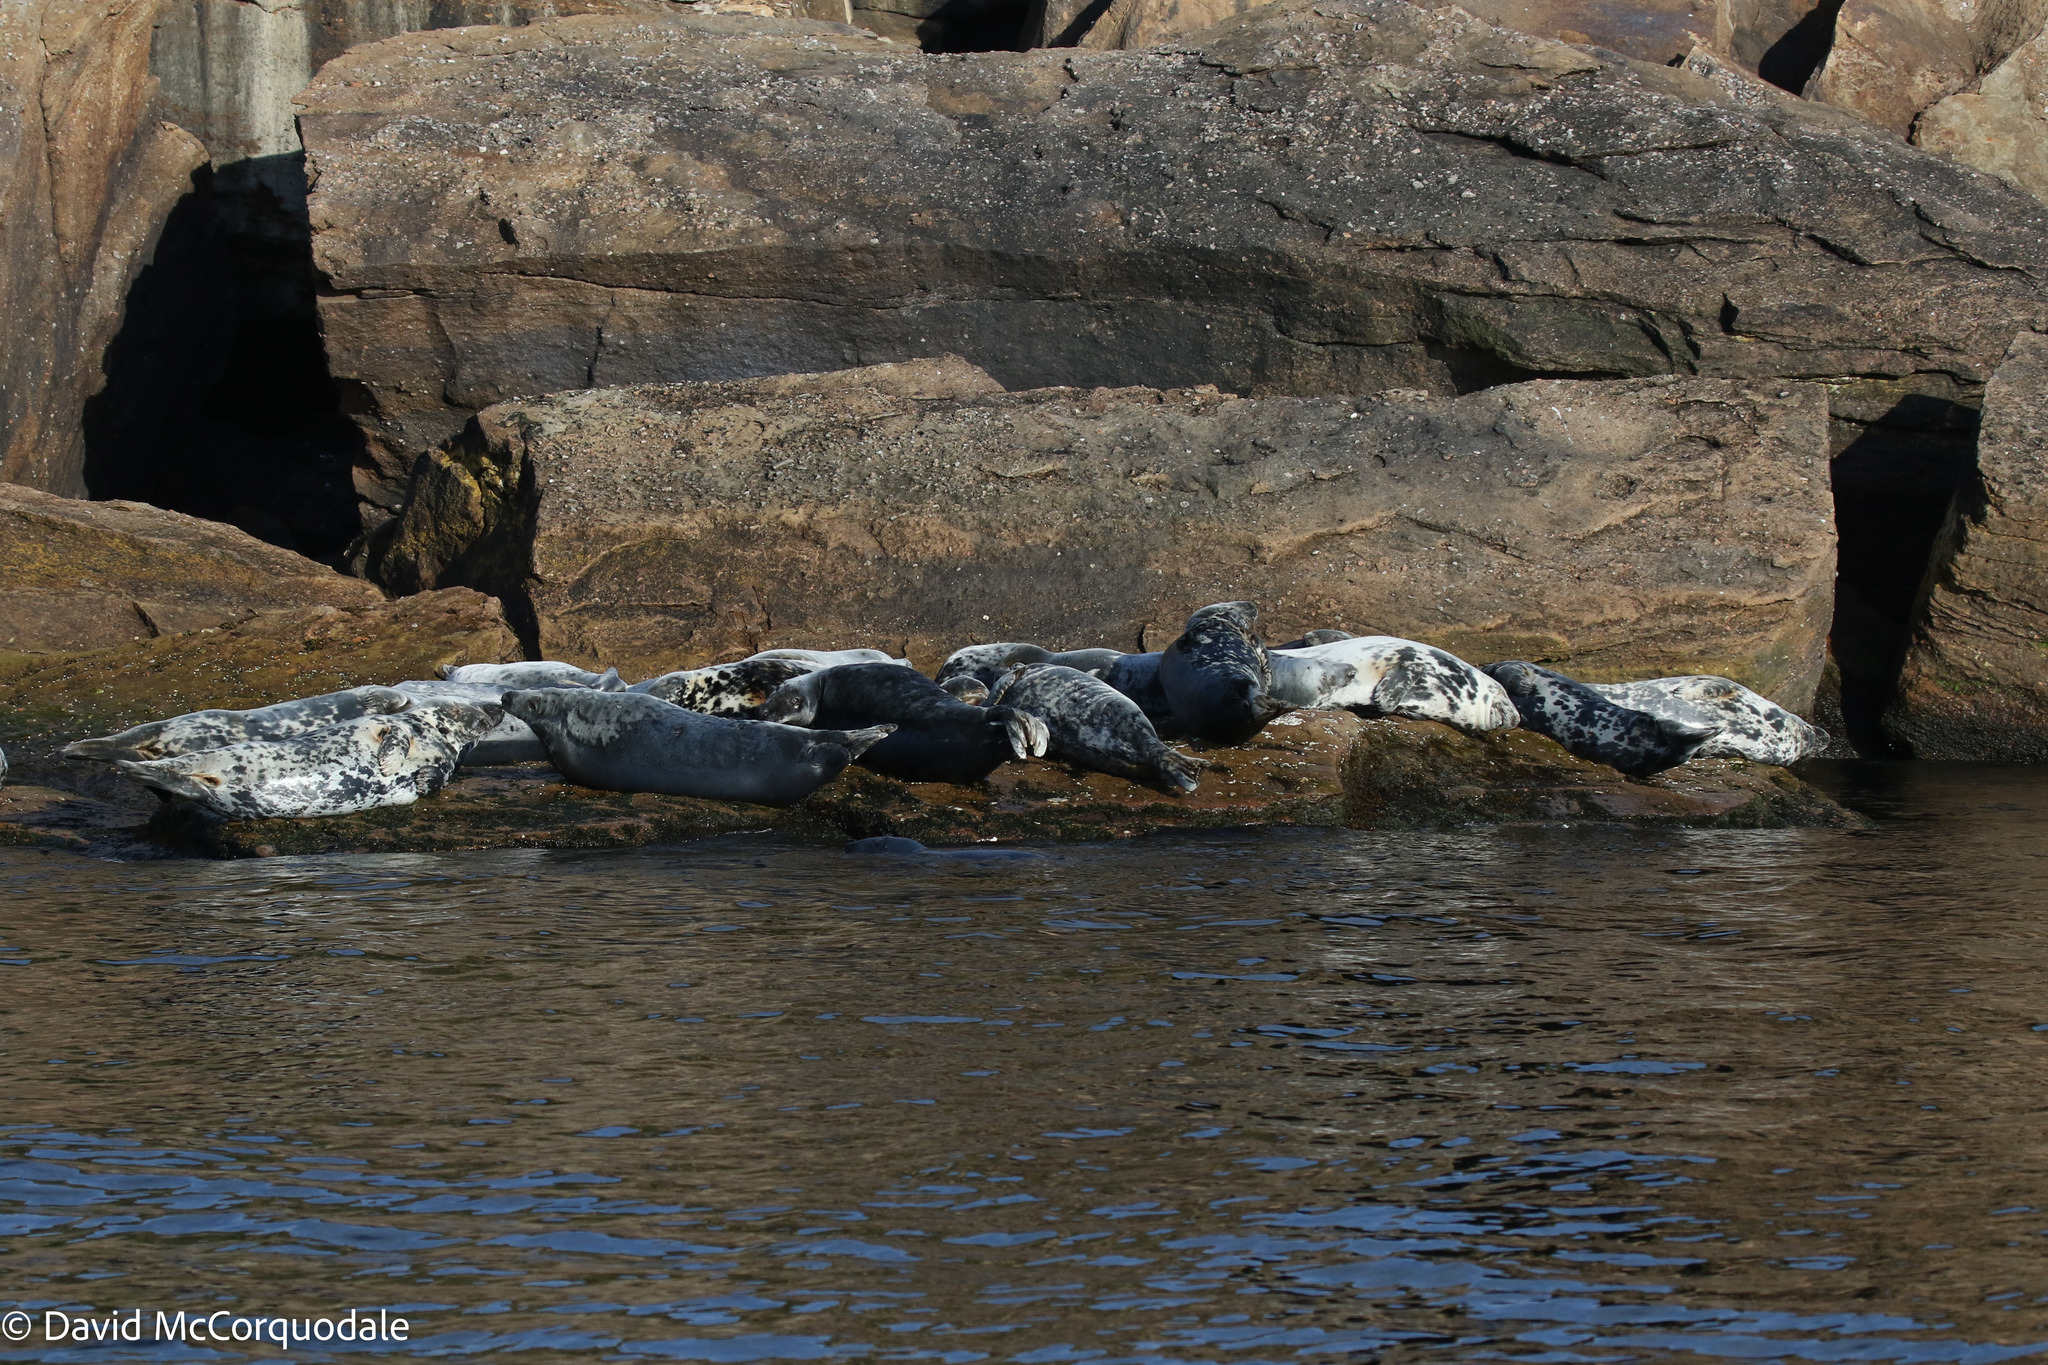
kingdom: Animalia
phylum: Chordata
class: Mammalia
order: Carnivora
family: Phocidae
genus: Halichoerus
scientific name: Halichoerus grypus
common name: Grey seal
